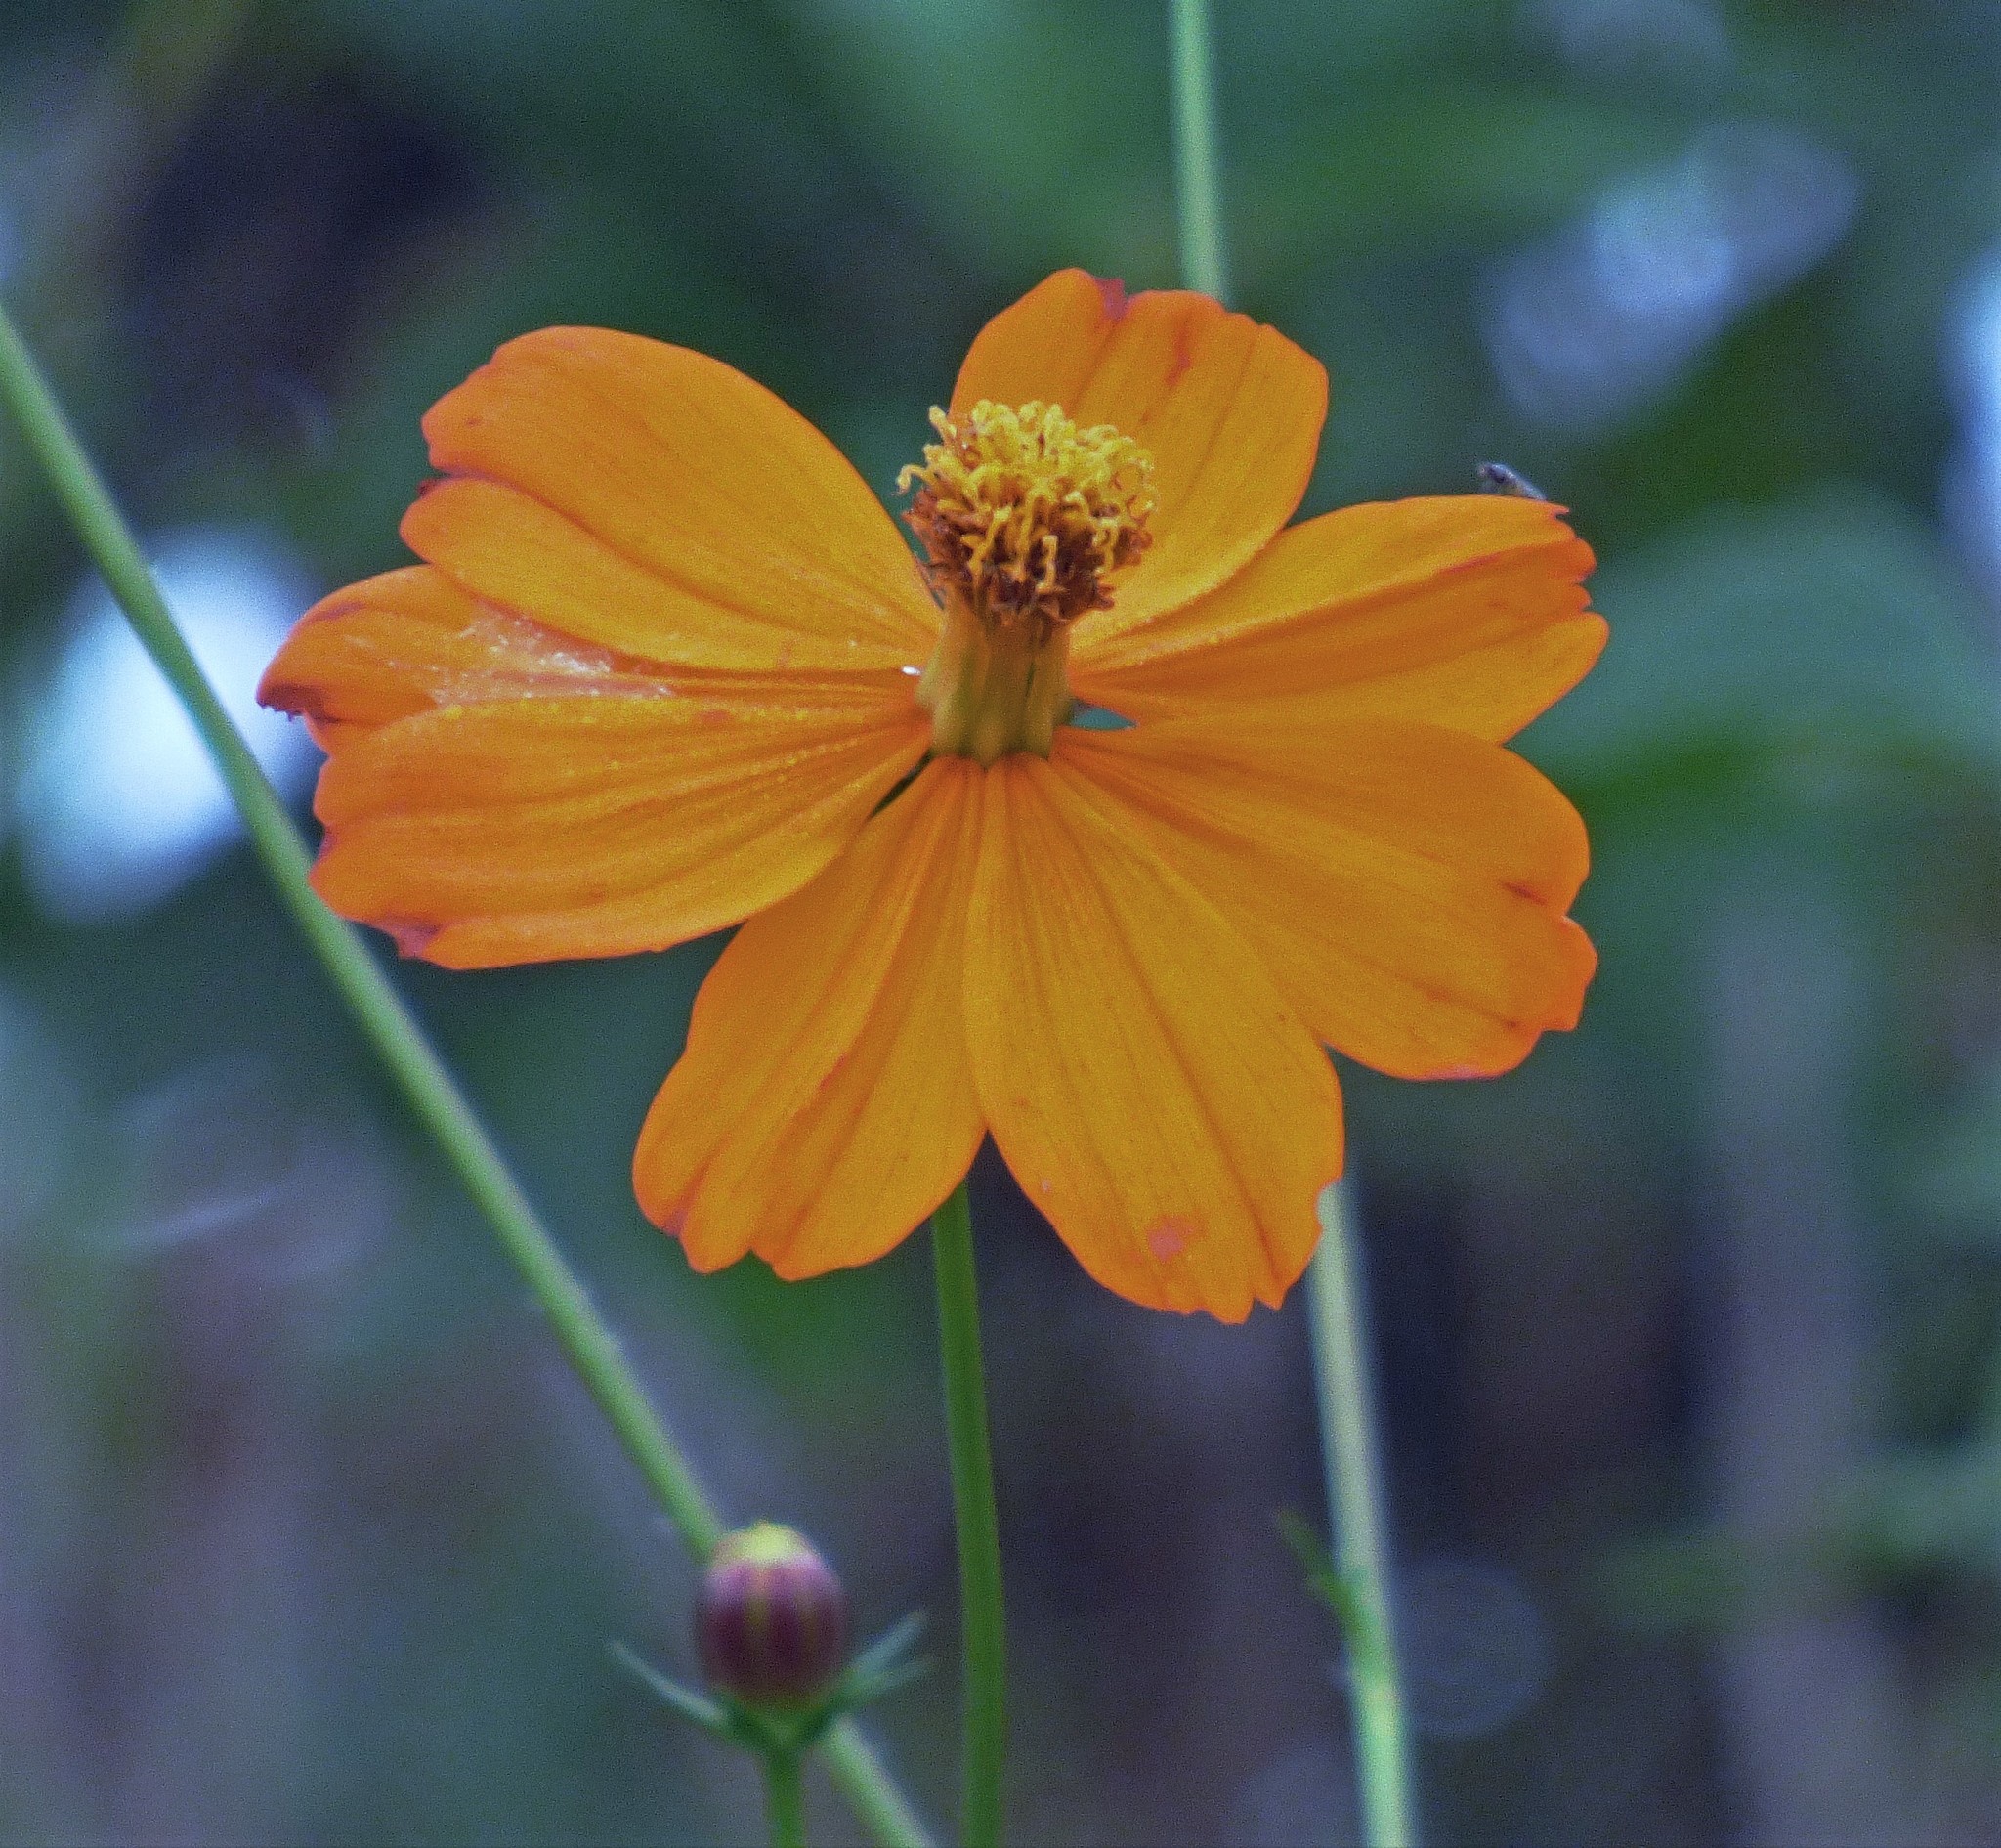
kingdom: Plantae
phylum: Tracheophyta
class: Magnoliopsida
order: Asterales
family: Asteraceae
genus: Cosmos
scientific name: Cosmos sulphureus
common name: Sulphur cosmos
